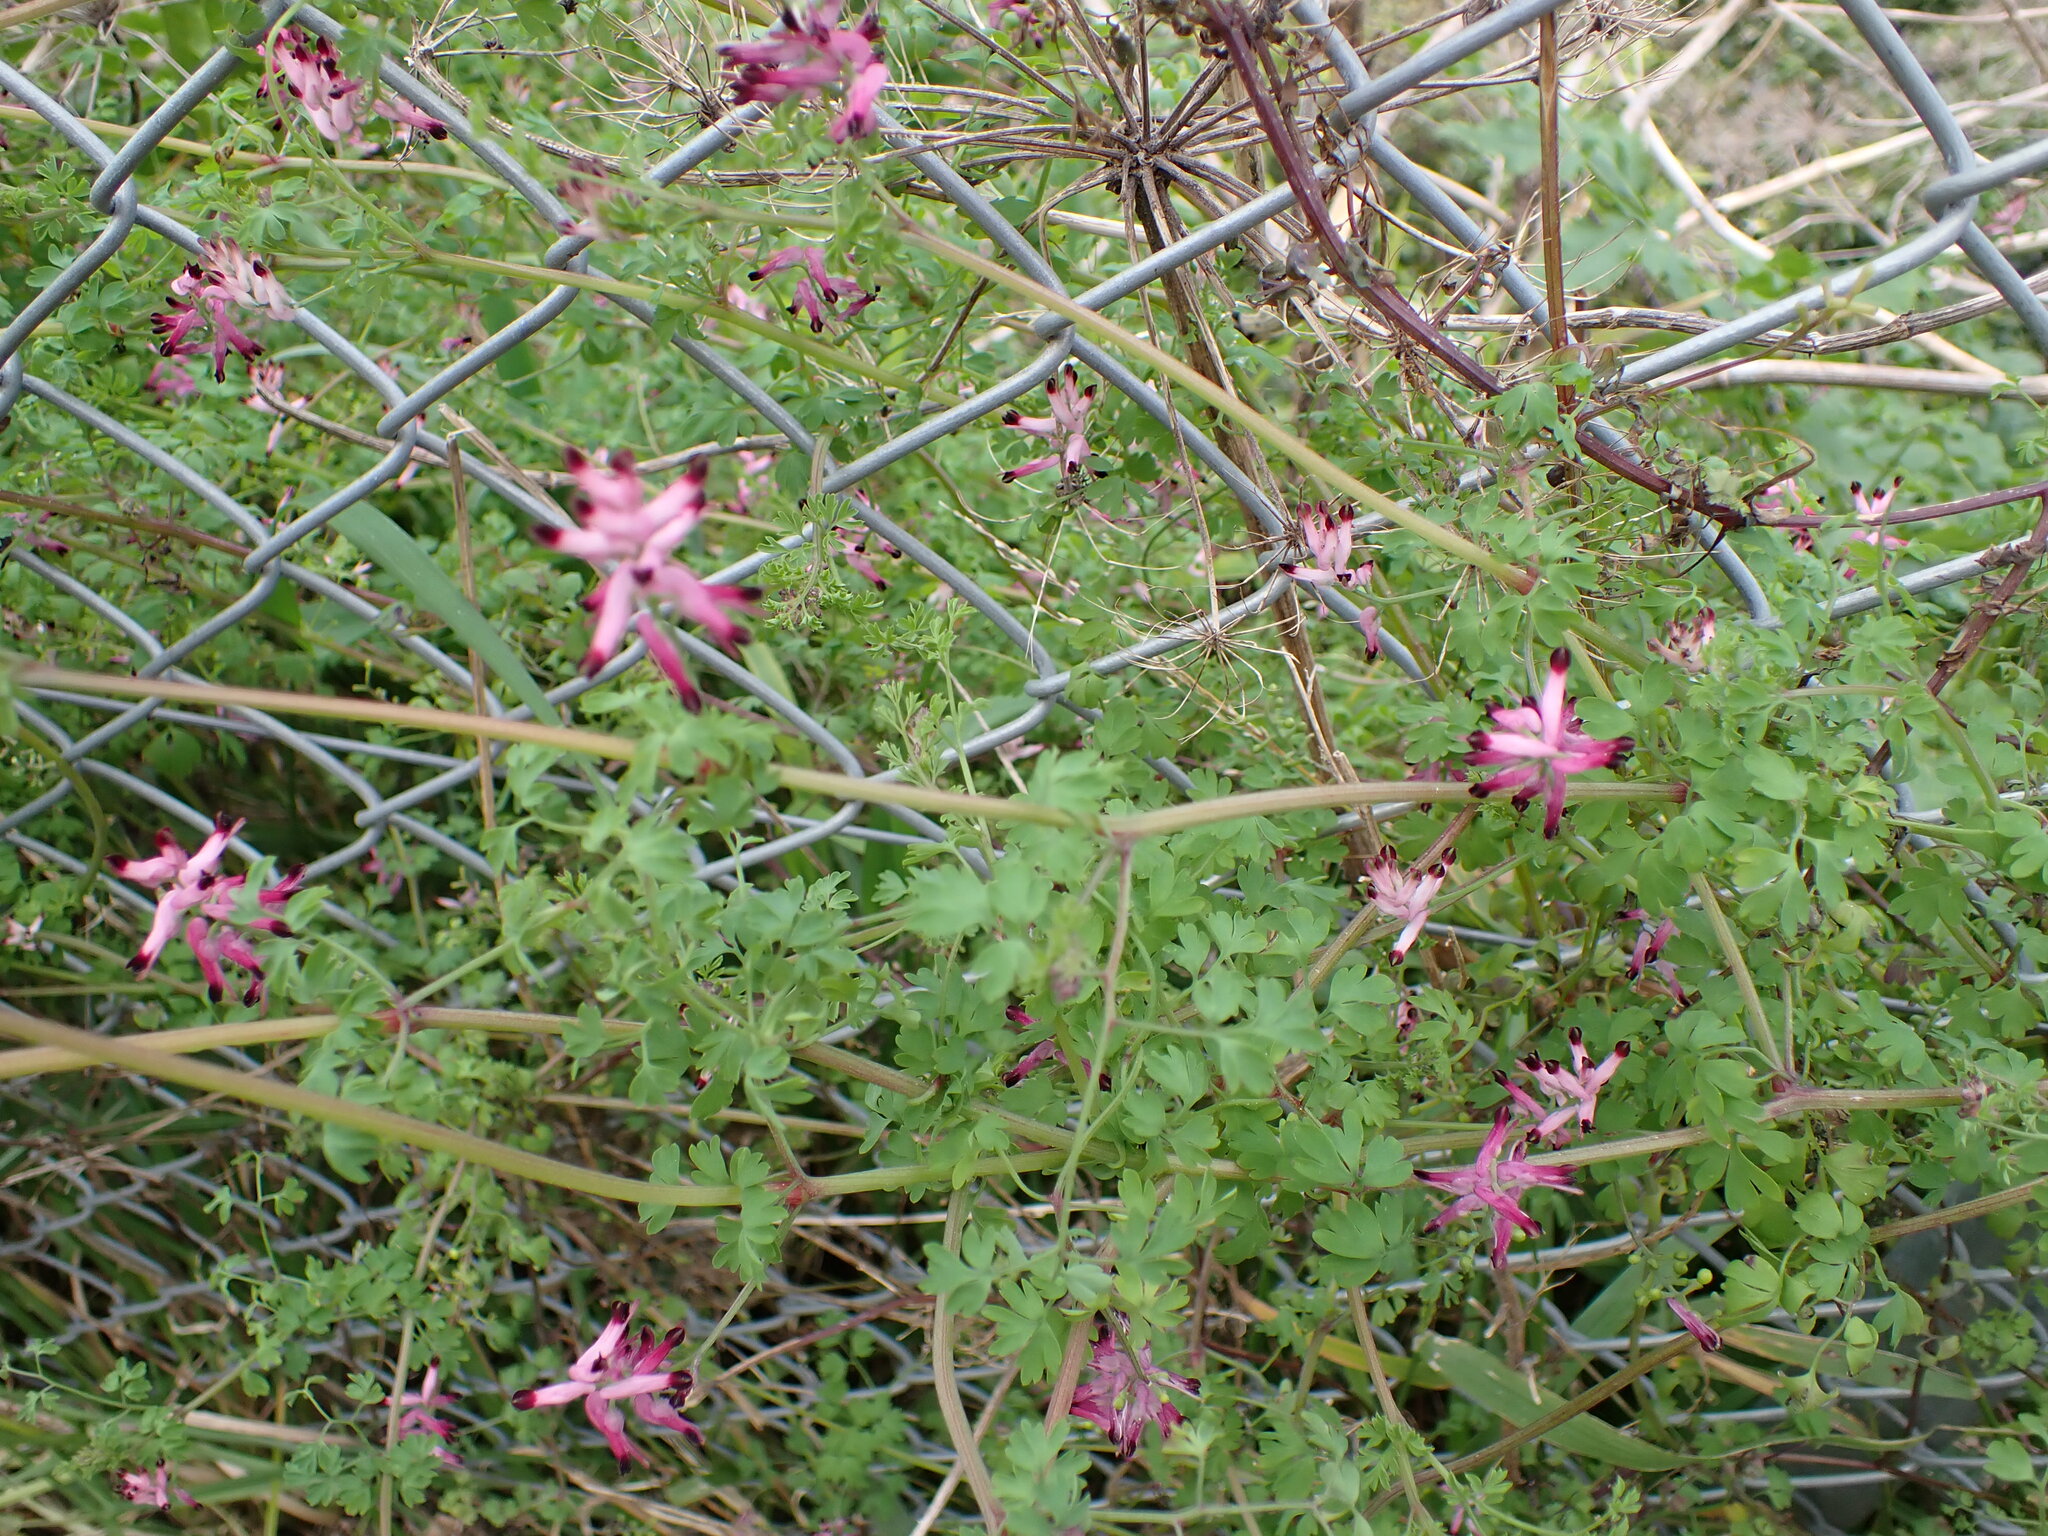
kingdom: Plantae
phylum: Tracheophyta
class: Magnoliopsida
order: Ranunculales
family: Papaveraceae
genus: Fumaria
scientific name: Fumaria muralis
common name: Common ramping-fumitory
